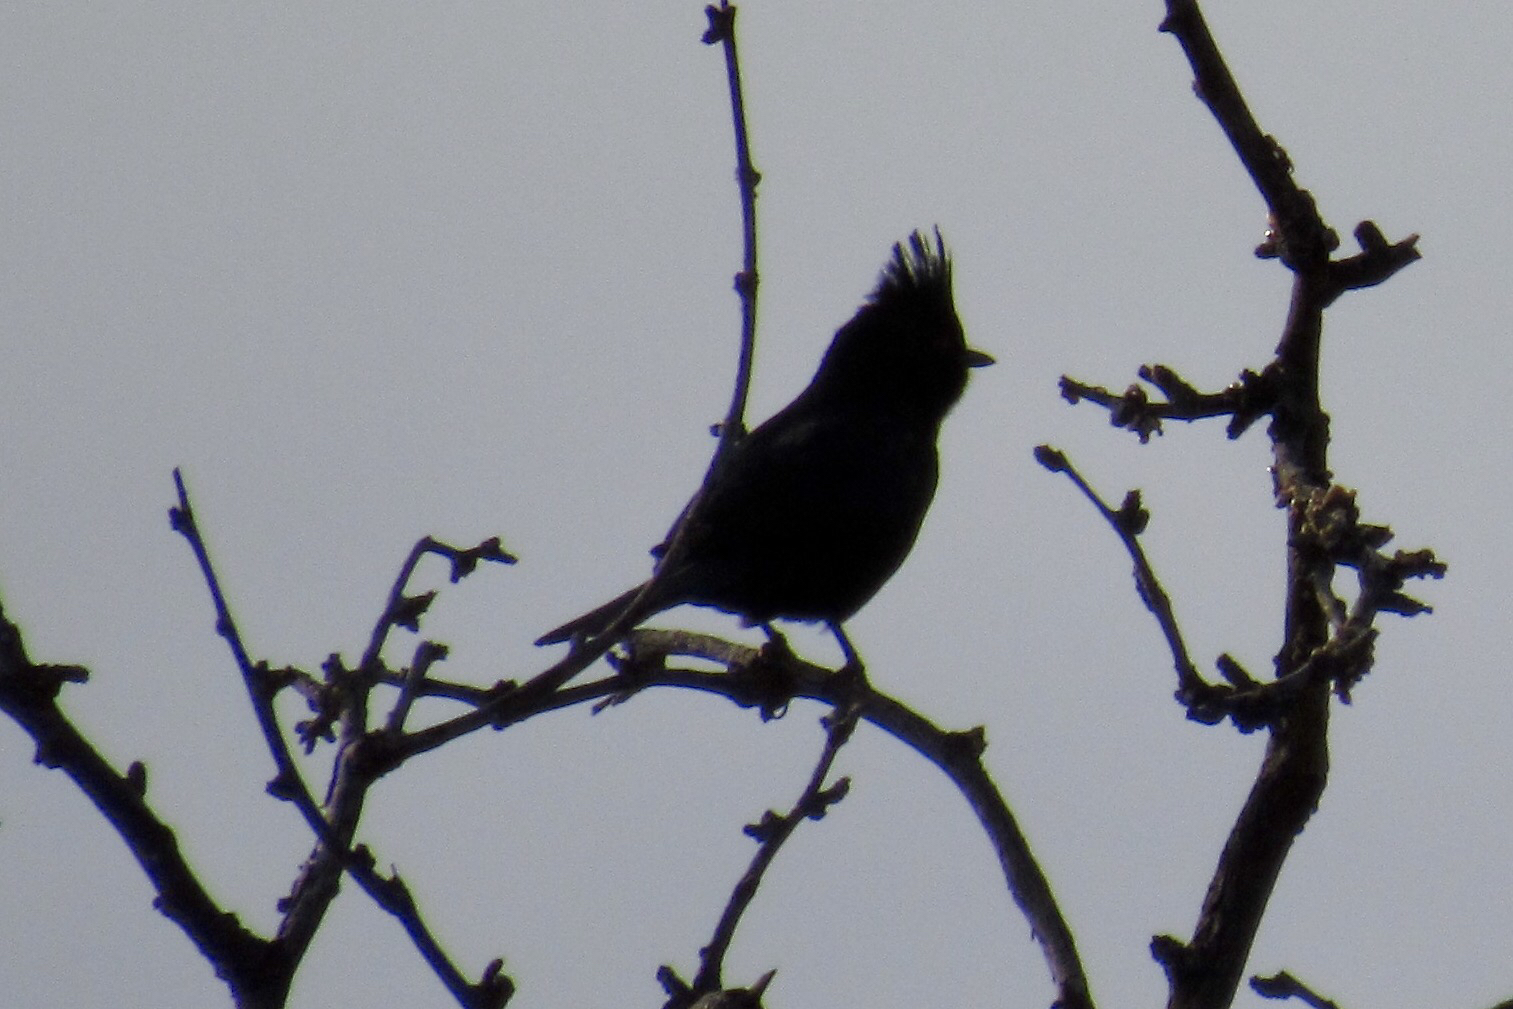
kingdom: Animalia
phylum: Chordata
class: Aves
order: Passeriformes
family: Ptilogonatidae
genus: Phainopepla
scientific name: Phainopepla nitens
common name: Phainopepla
